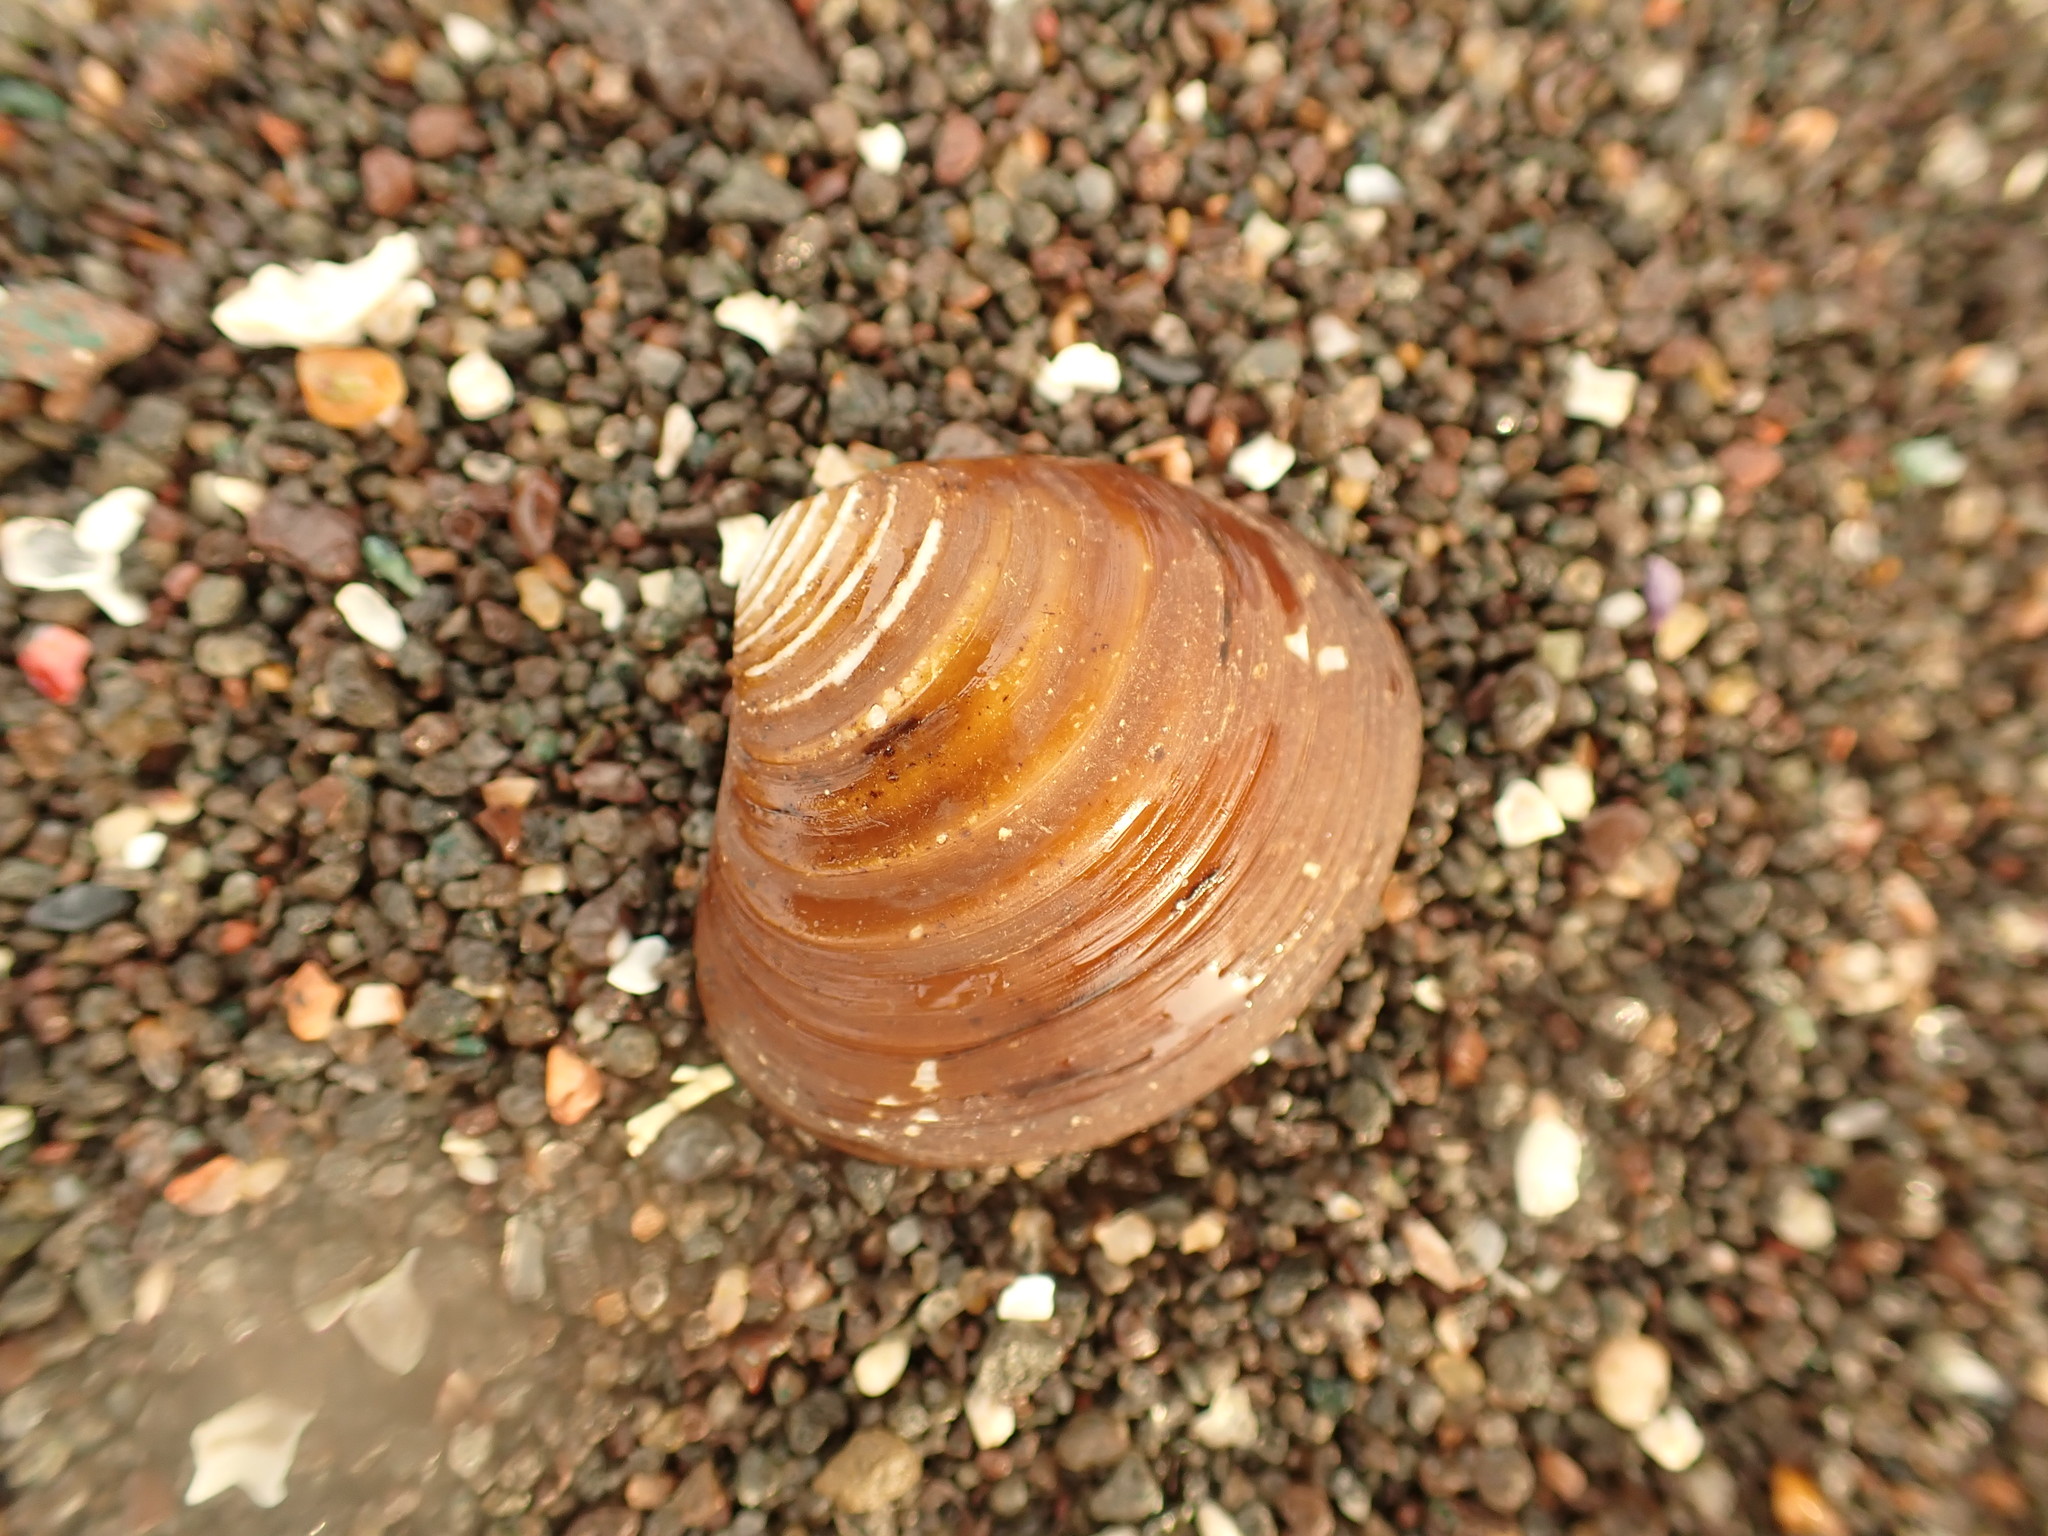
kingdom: Animalia
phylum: Mollusca
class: Bivalvia
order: Carditida
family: Astartidae
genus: Astarte
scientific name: Astarte undata
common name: Wavy astarte
